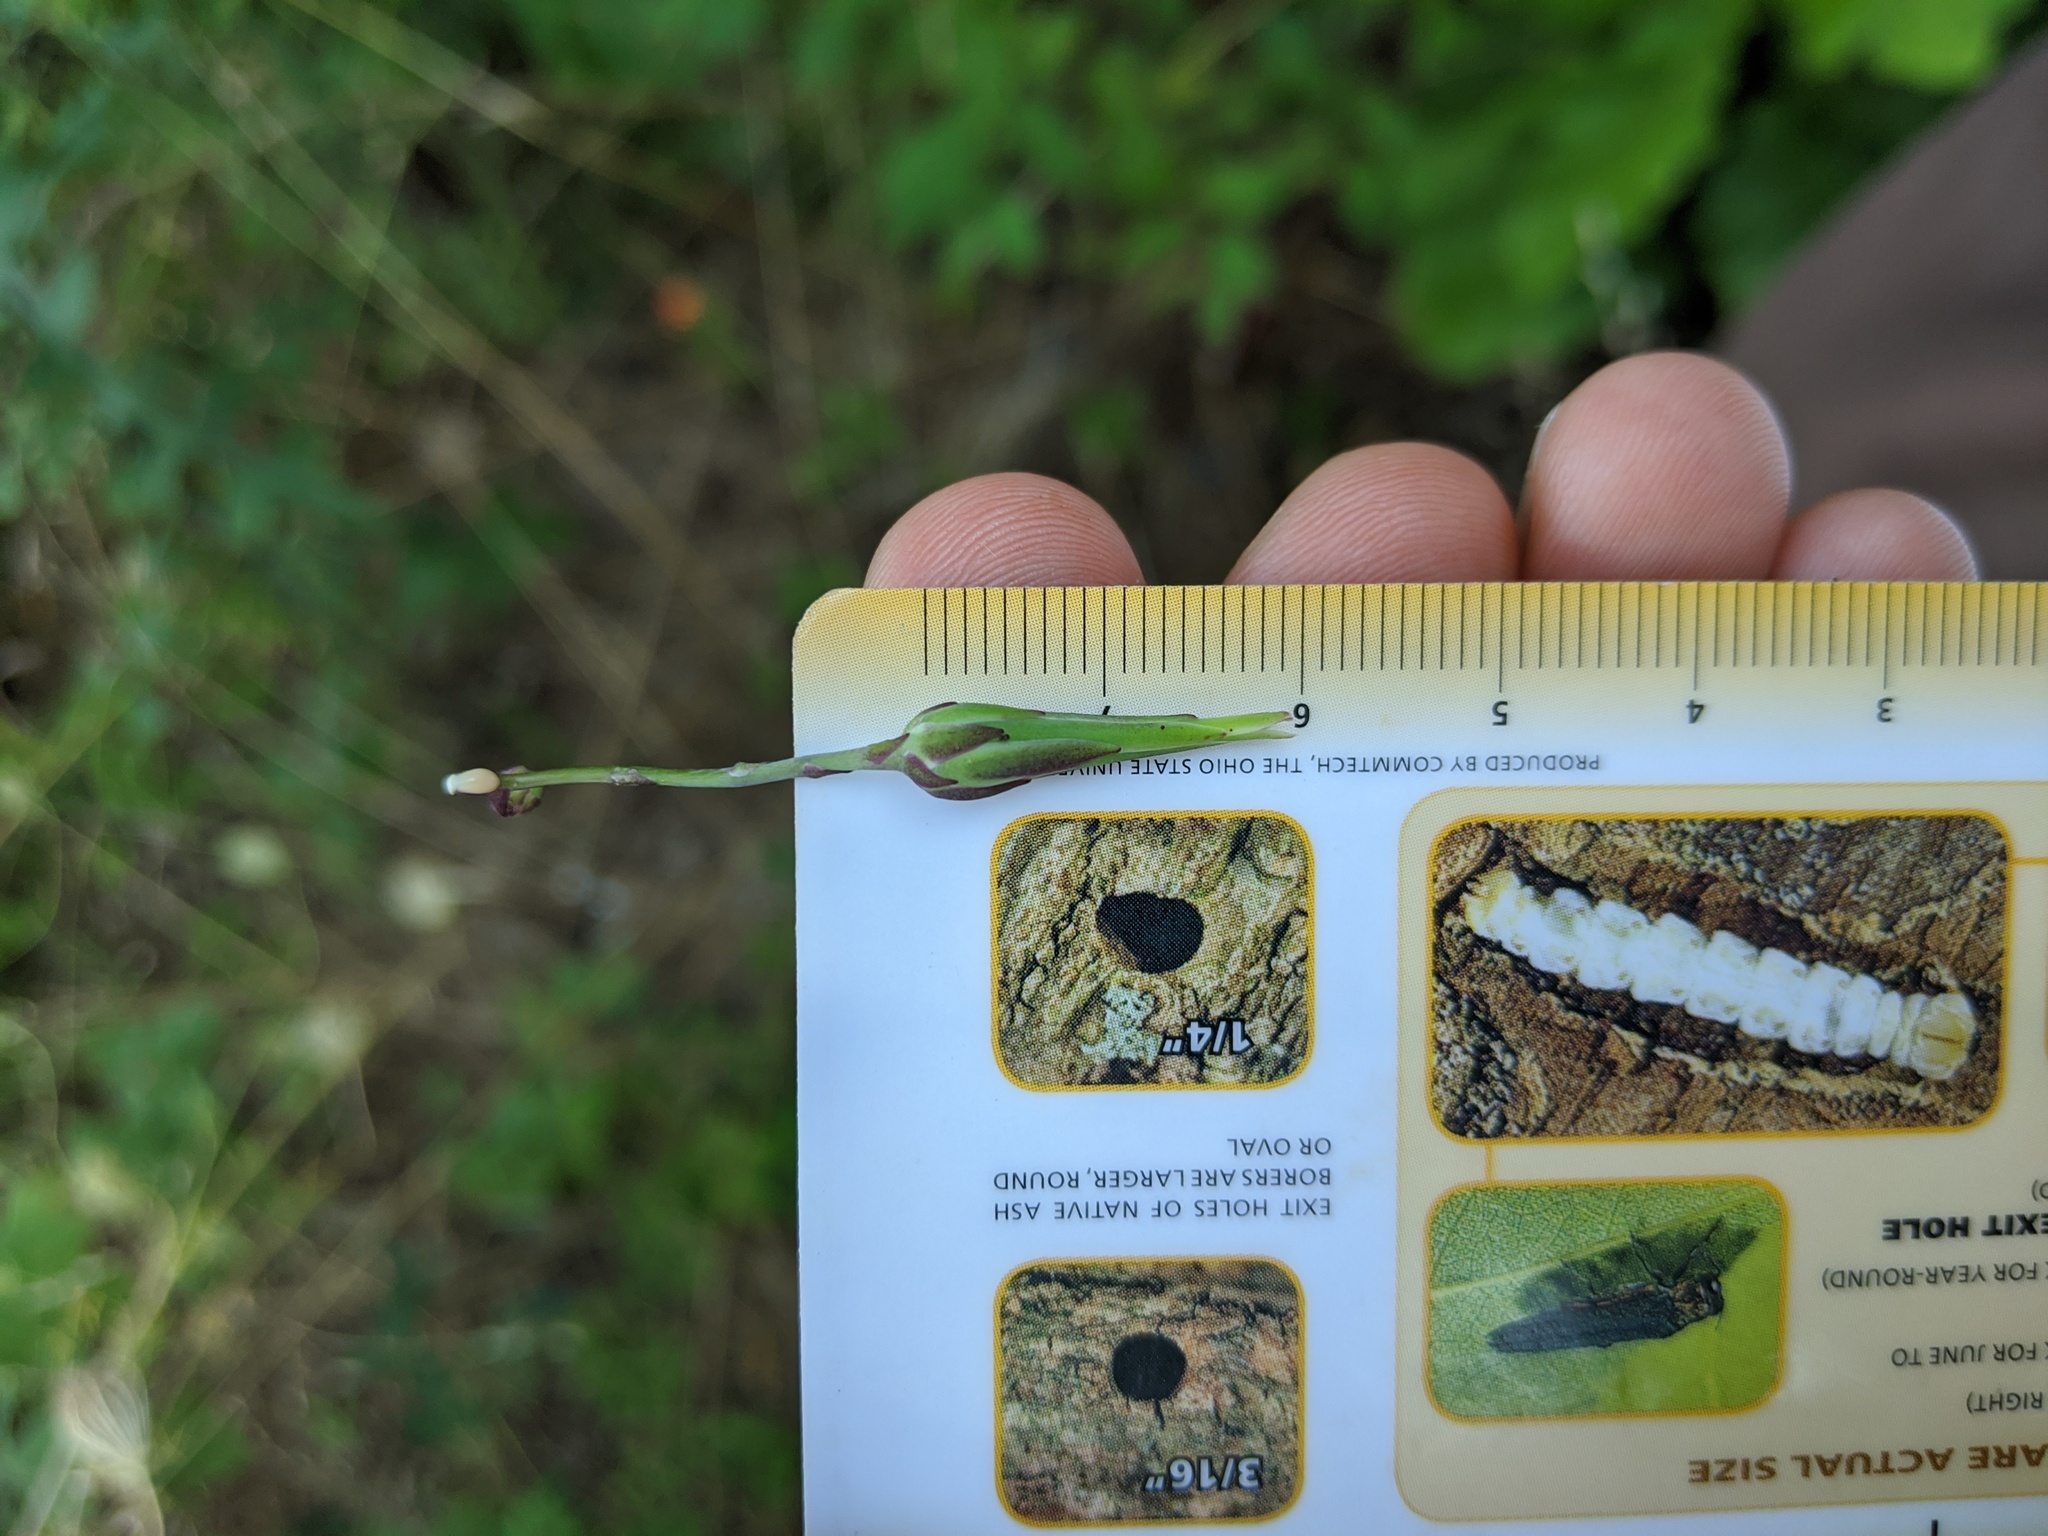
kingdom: Plantae
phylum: Tracheophyta
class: Magnoliopsida
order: Asterales
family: Asteraceae
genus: Lactuca
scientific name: Lactuca hirsuta
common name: Hairy lettuce
